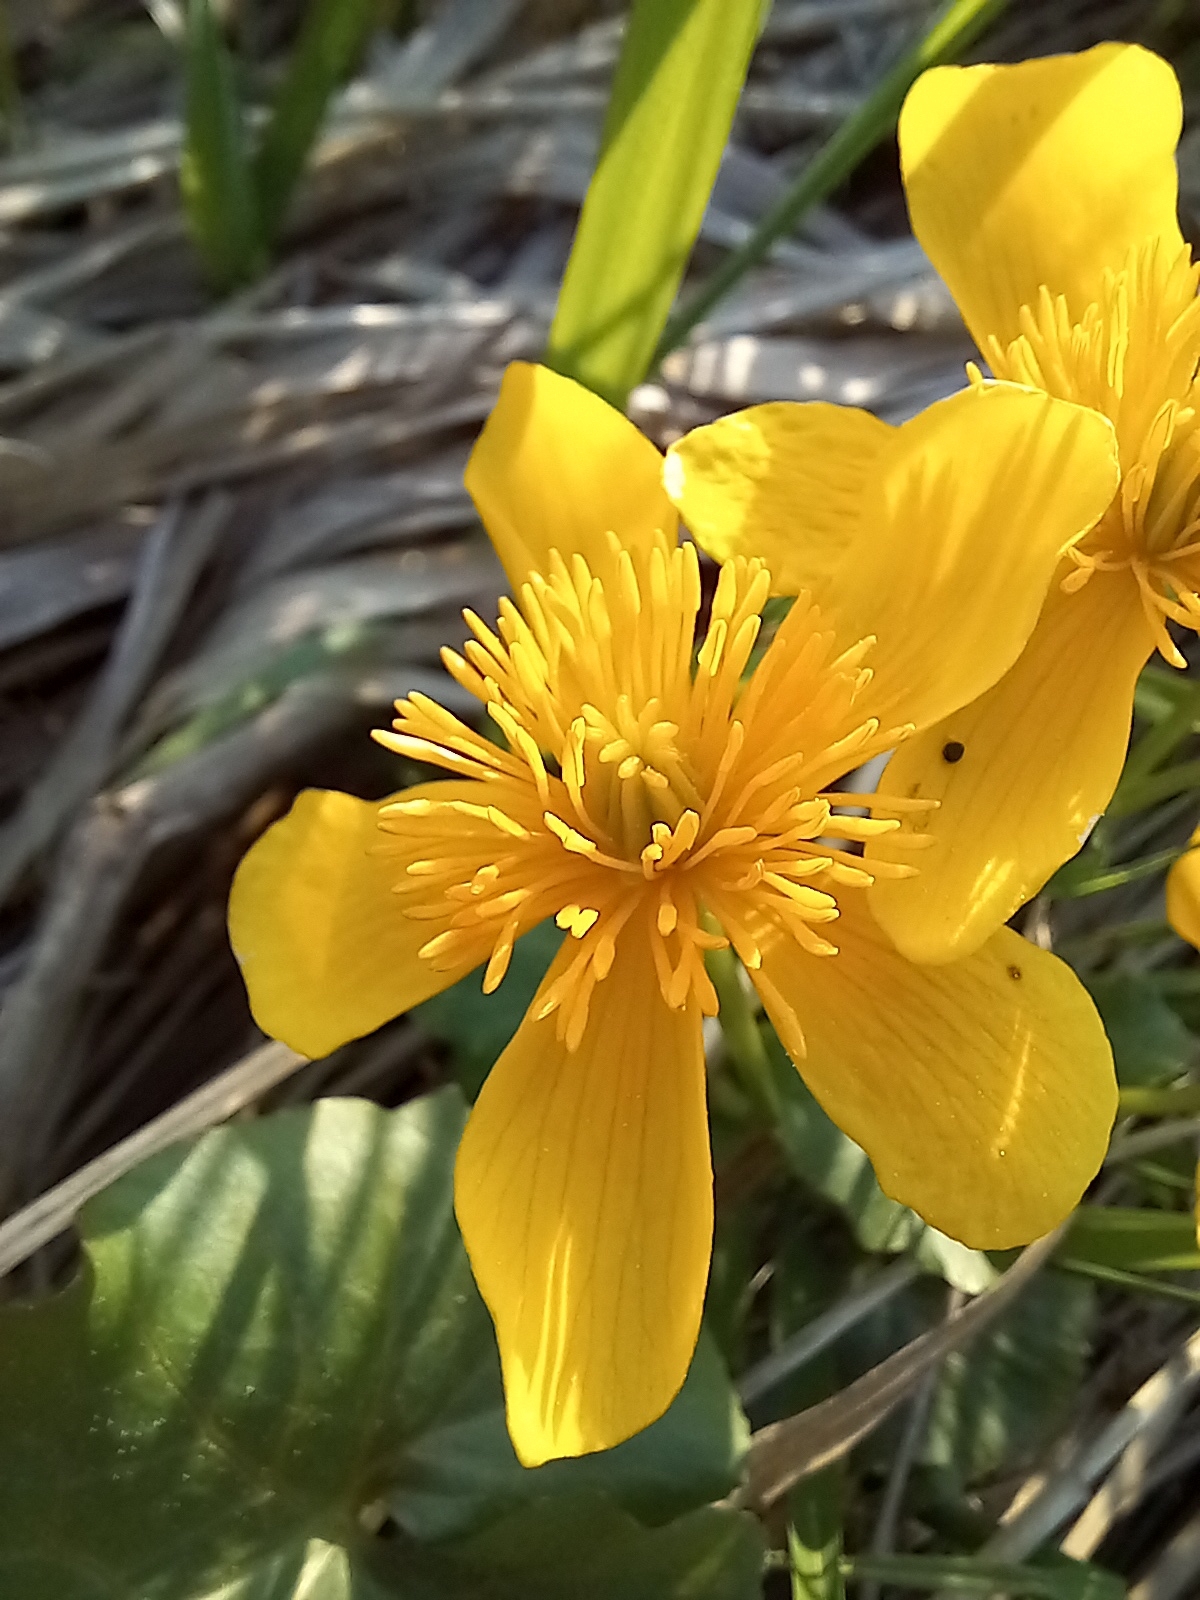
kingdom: Plantae
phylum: Tracheophyta
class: Magnoliopsida
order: Ranunculales
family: Ranunculaceae
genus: Caltha
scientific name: Caltha palustris
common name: Marsh marigold
